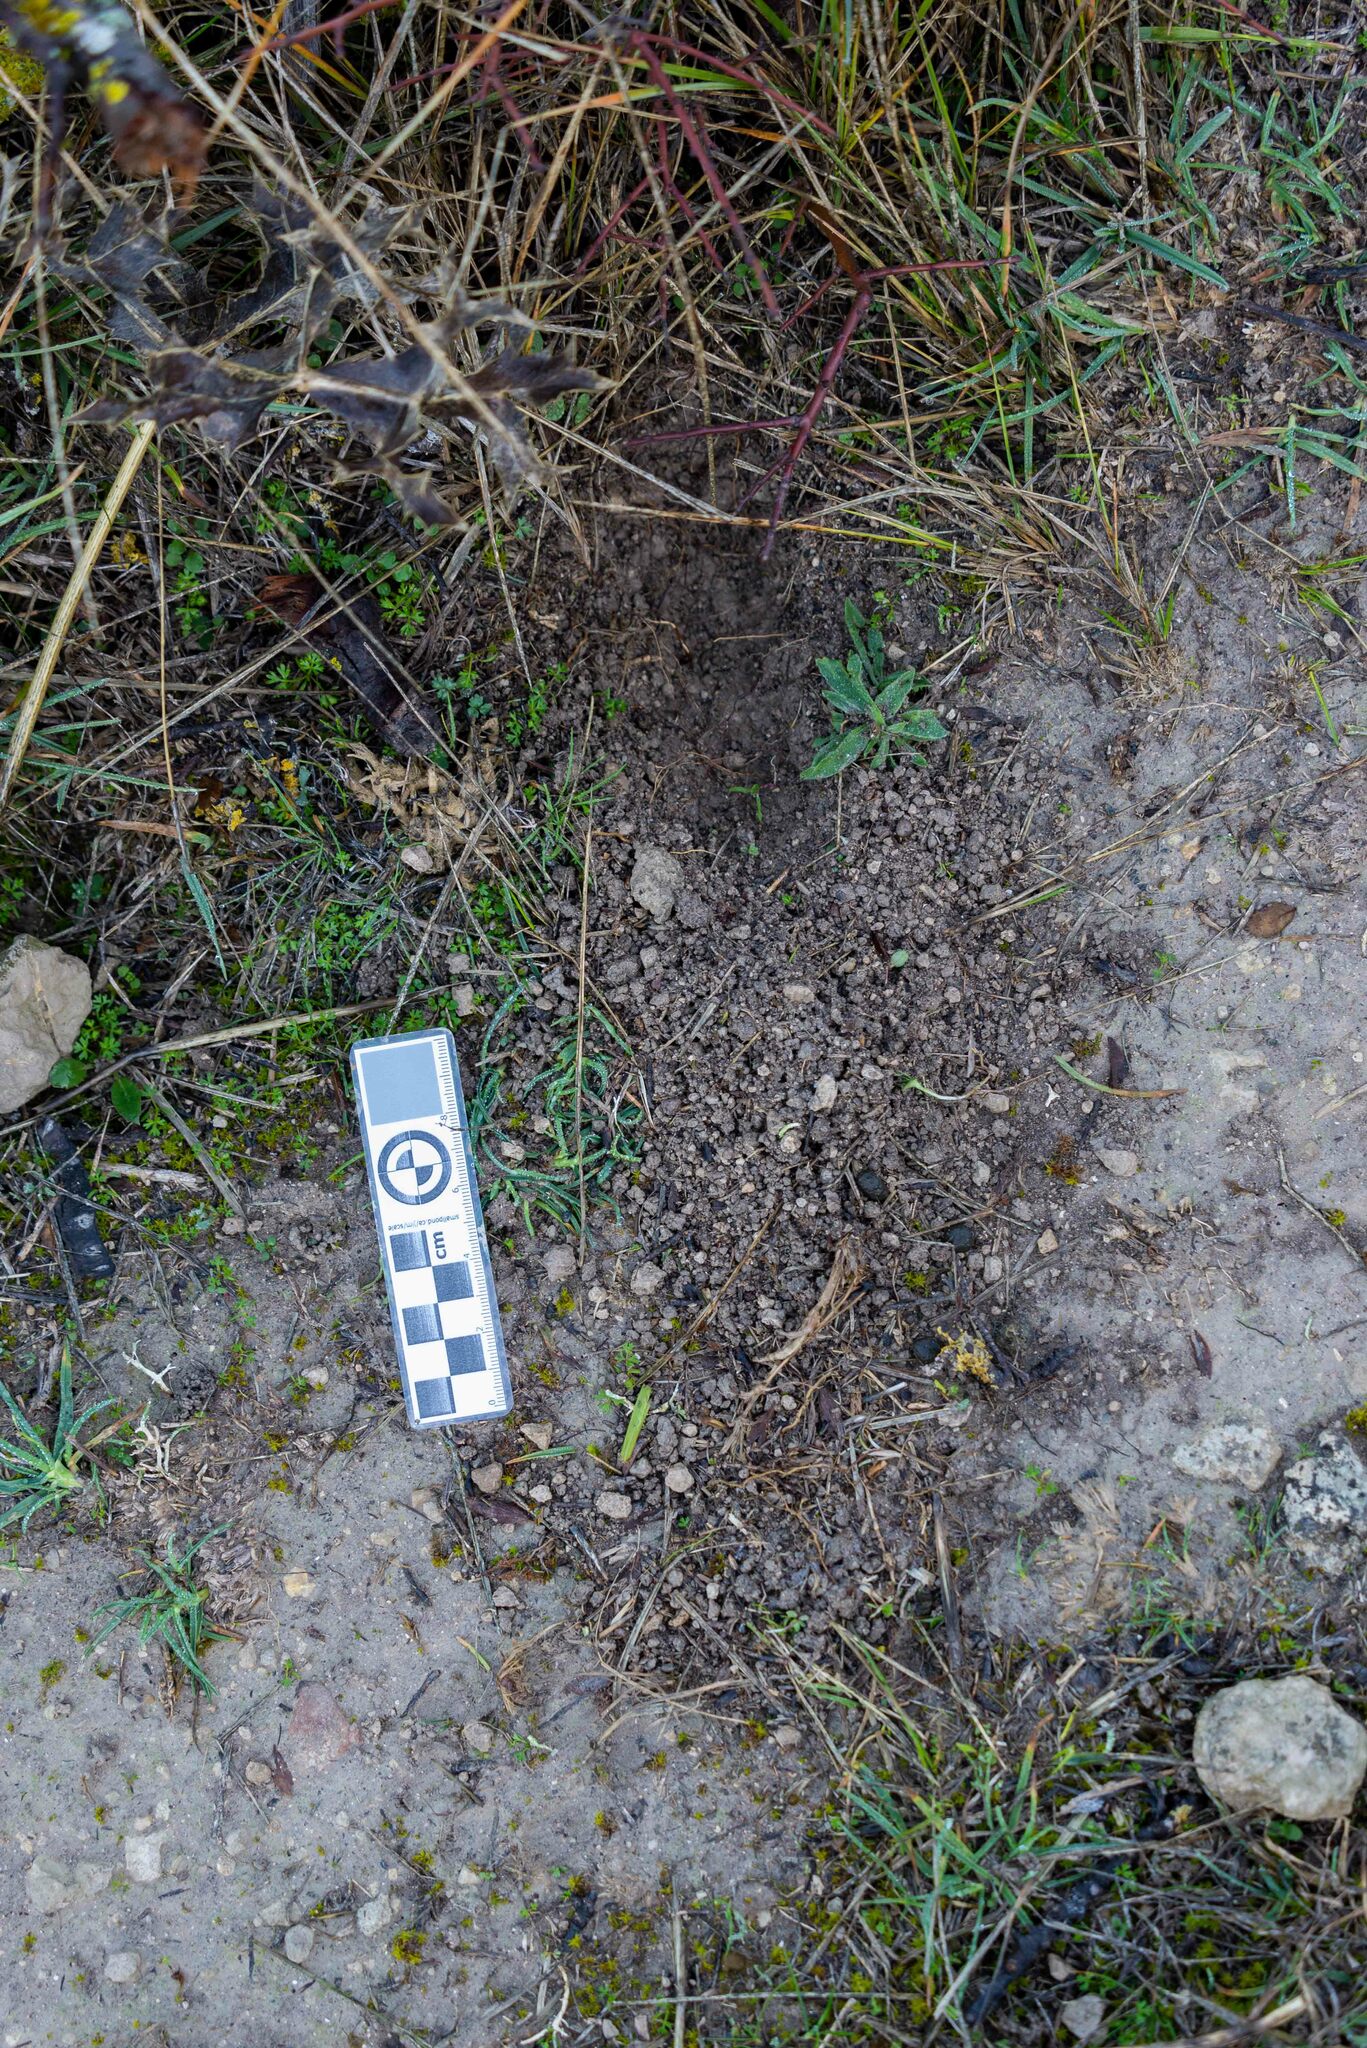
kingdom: Animalia
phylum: Chordata
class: Mammalia
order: Lagomorpha
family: Leporidae
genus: Oryctolagus
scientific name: Oryctolagus cuniculus
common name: European rabbit
